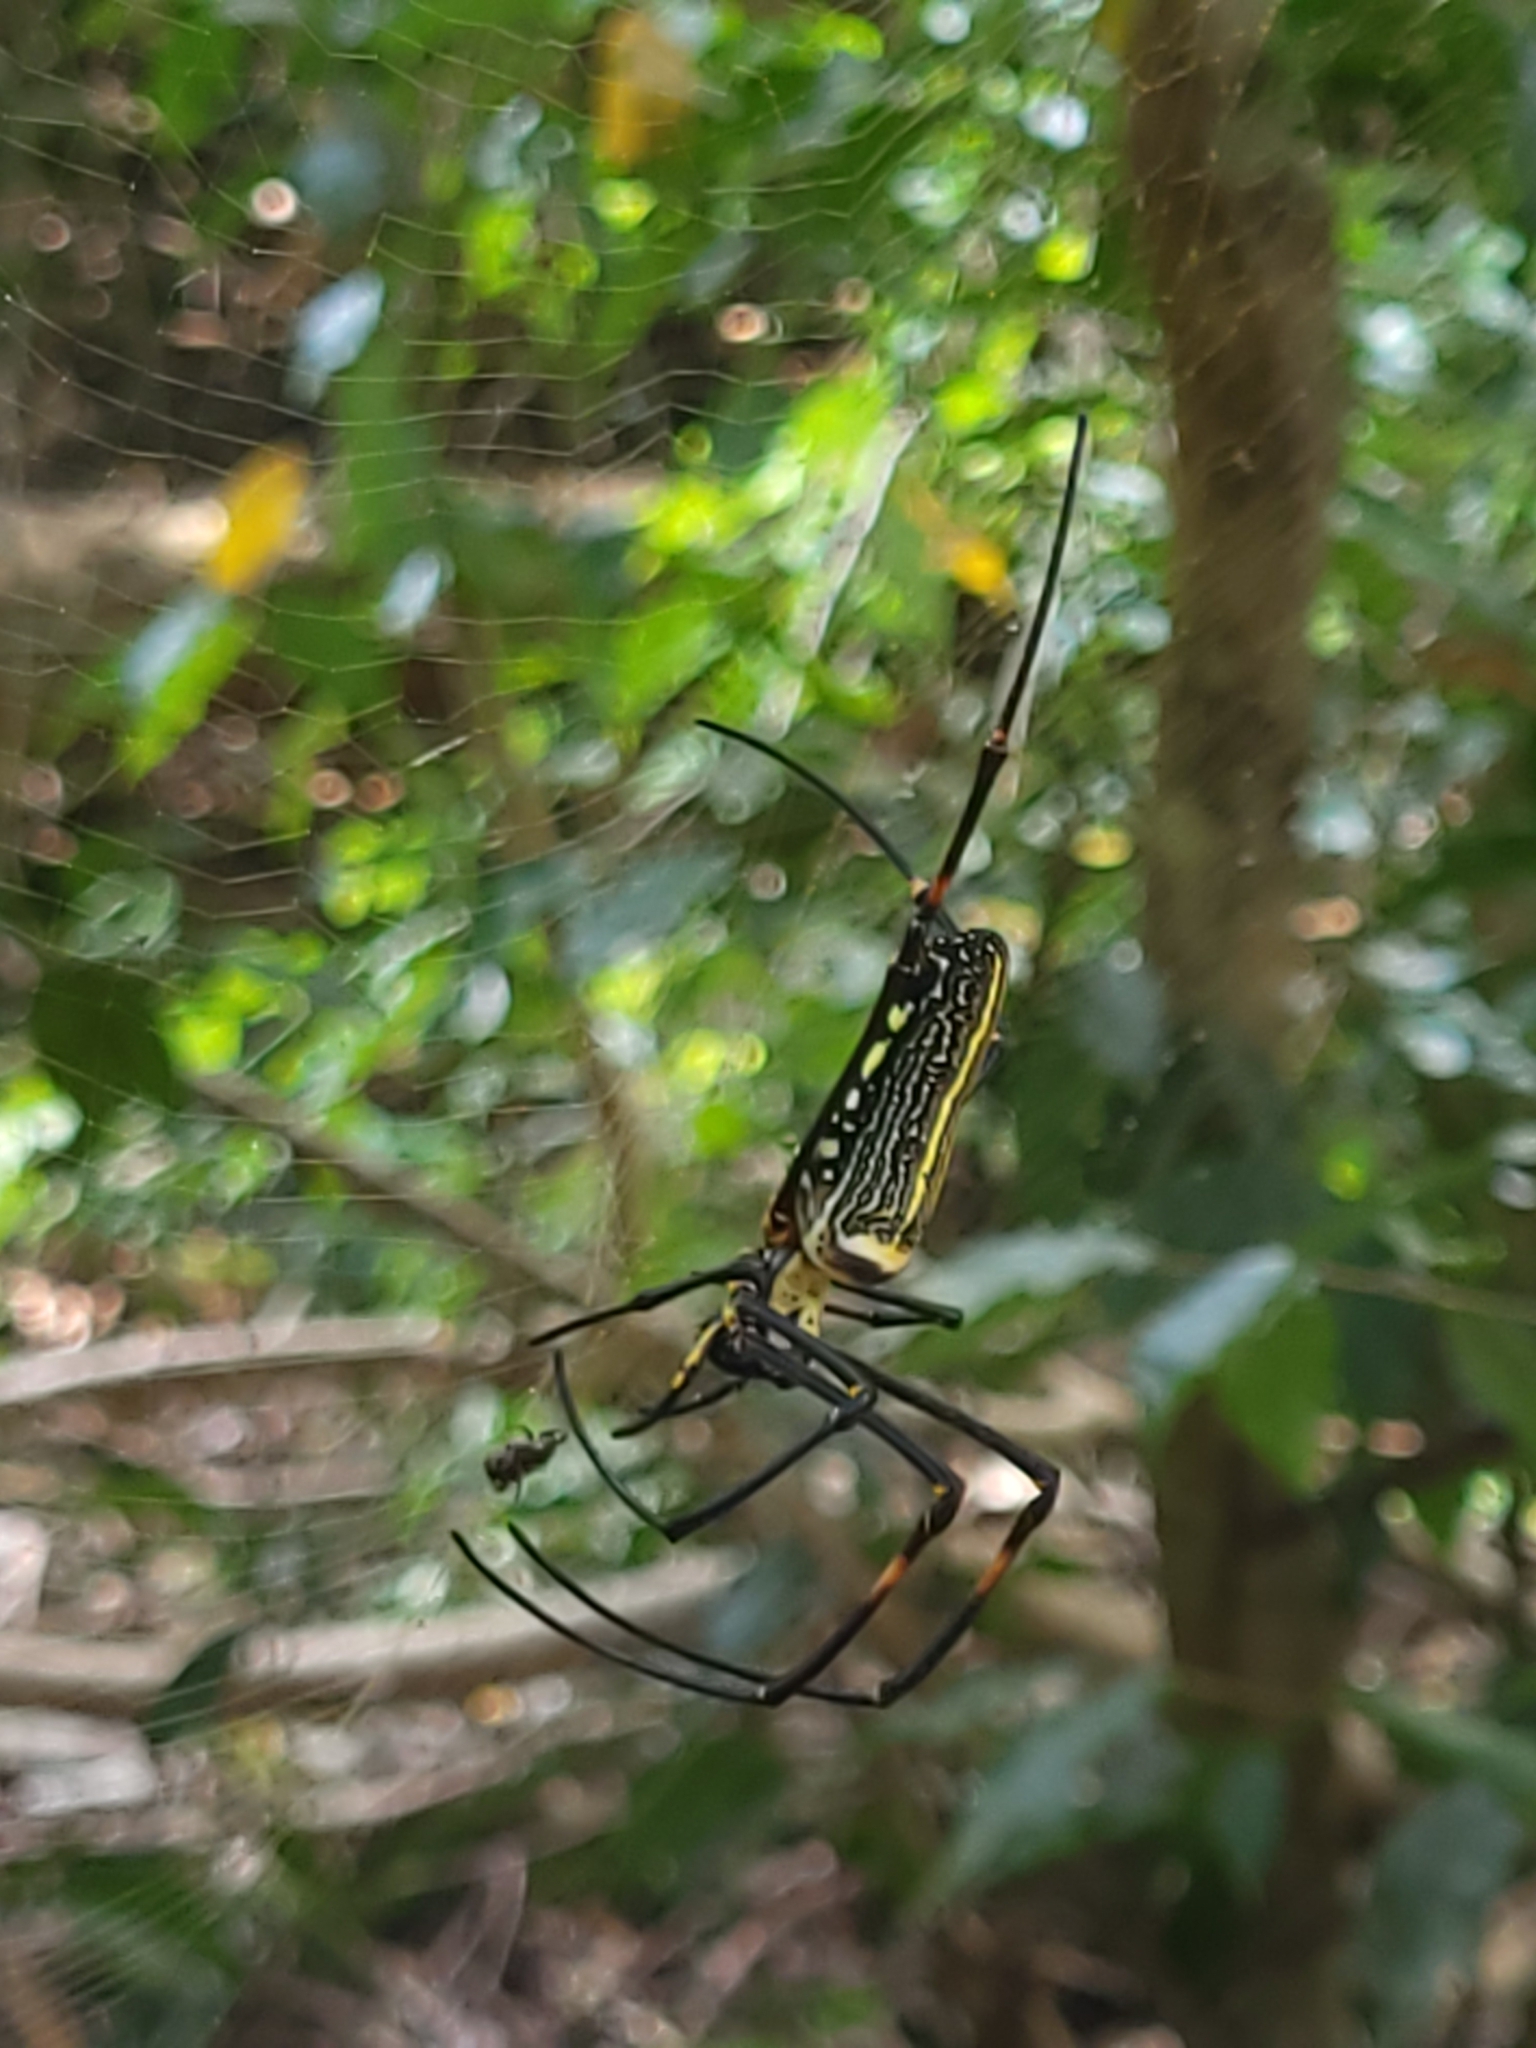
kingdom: Animalia
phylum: Arthropoda
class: Arachnida
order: Araneae
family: Araneidae
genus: Nephila
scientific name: Nephila pilipes
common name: Giant golden orb weaver
